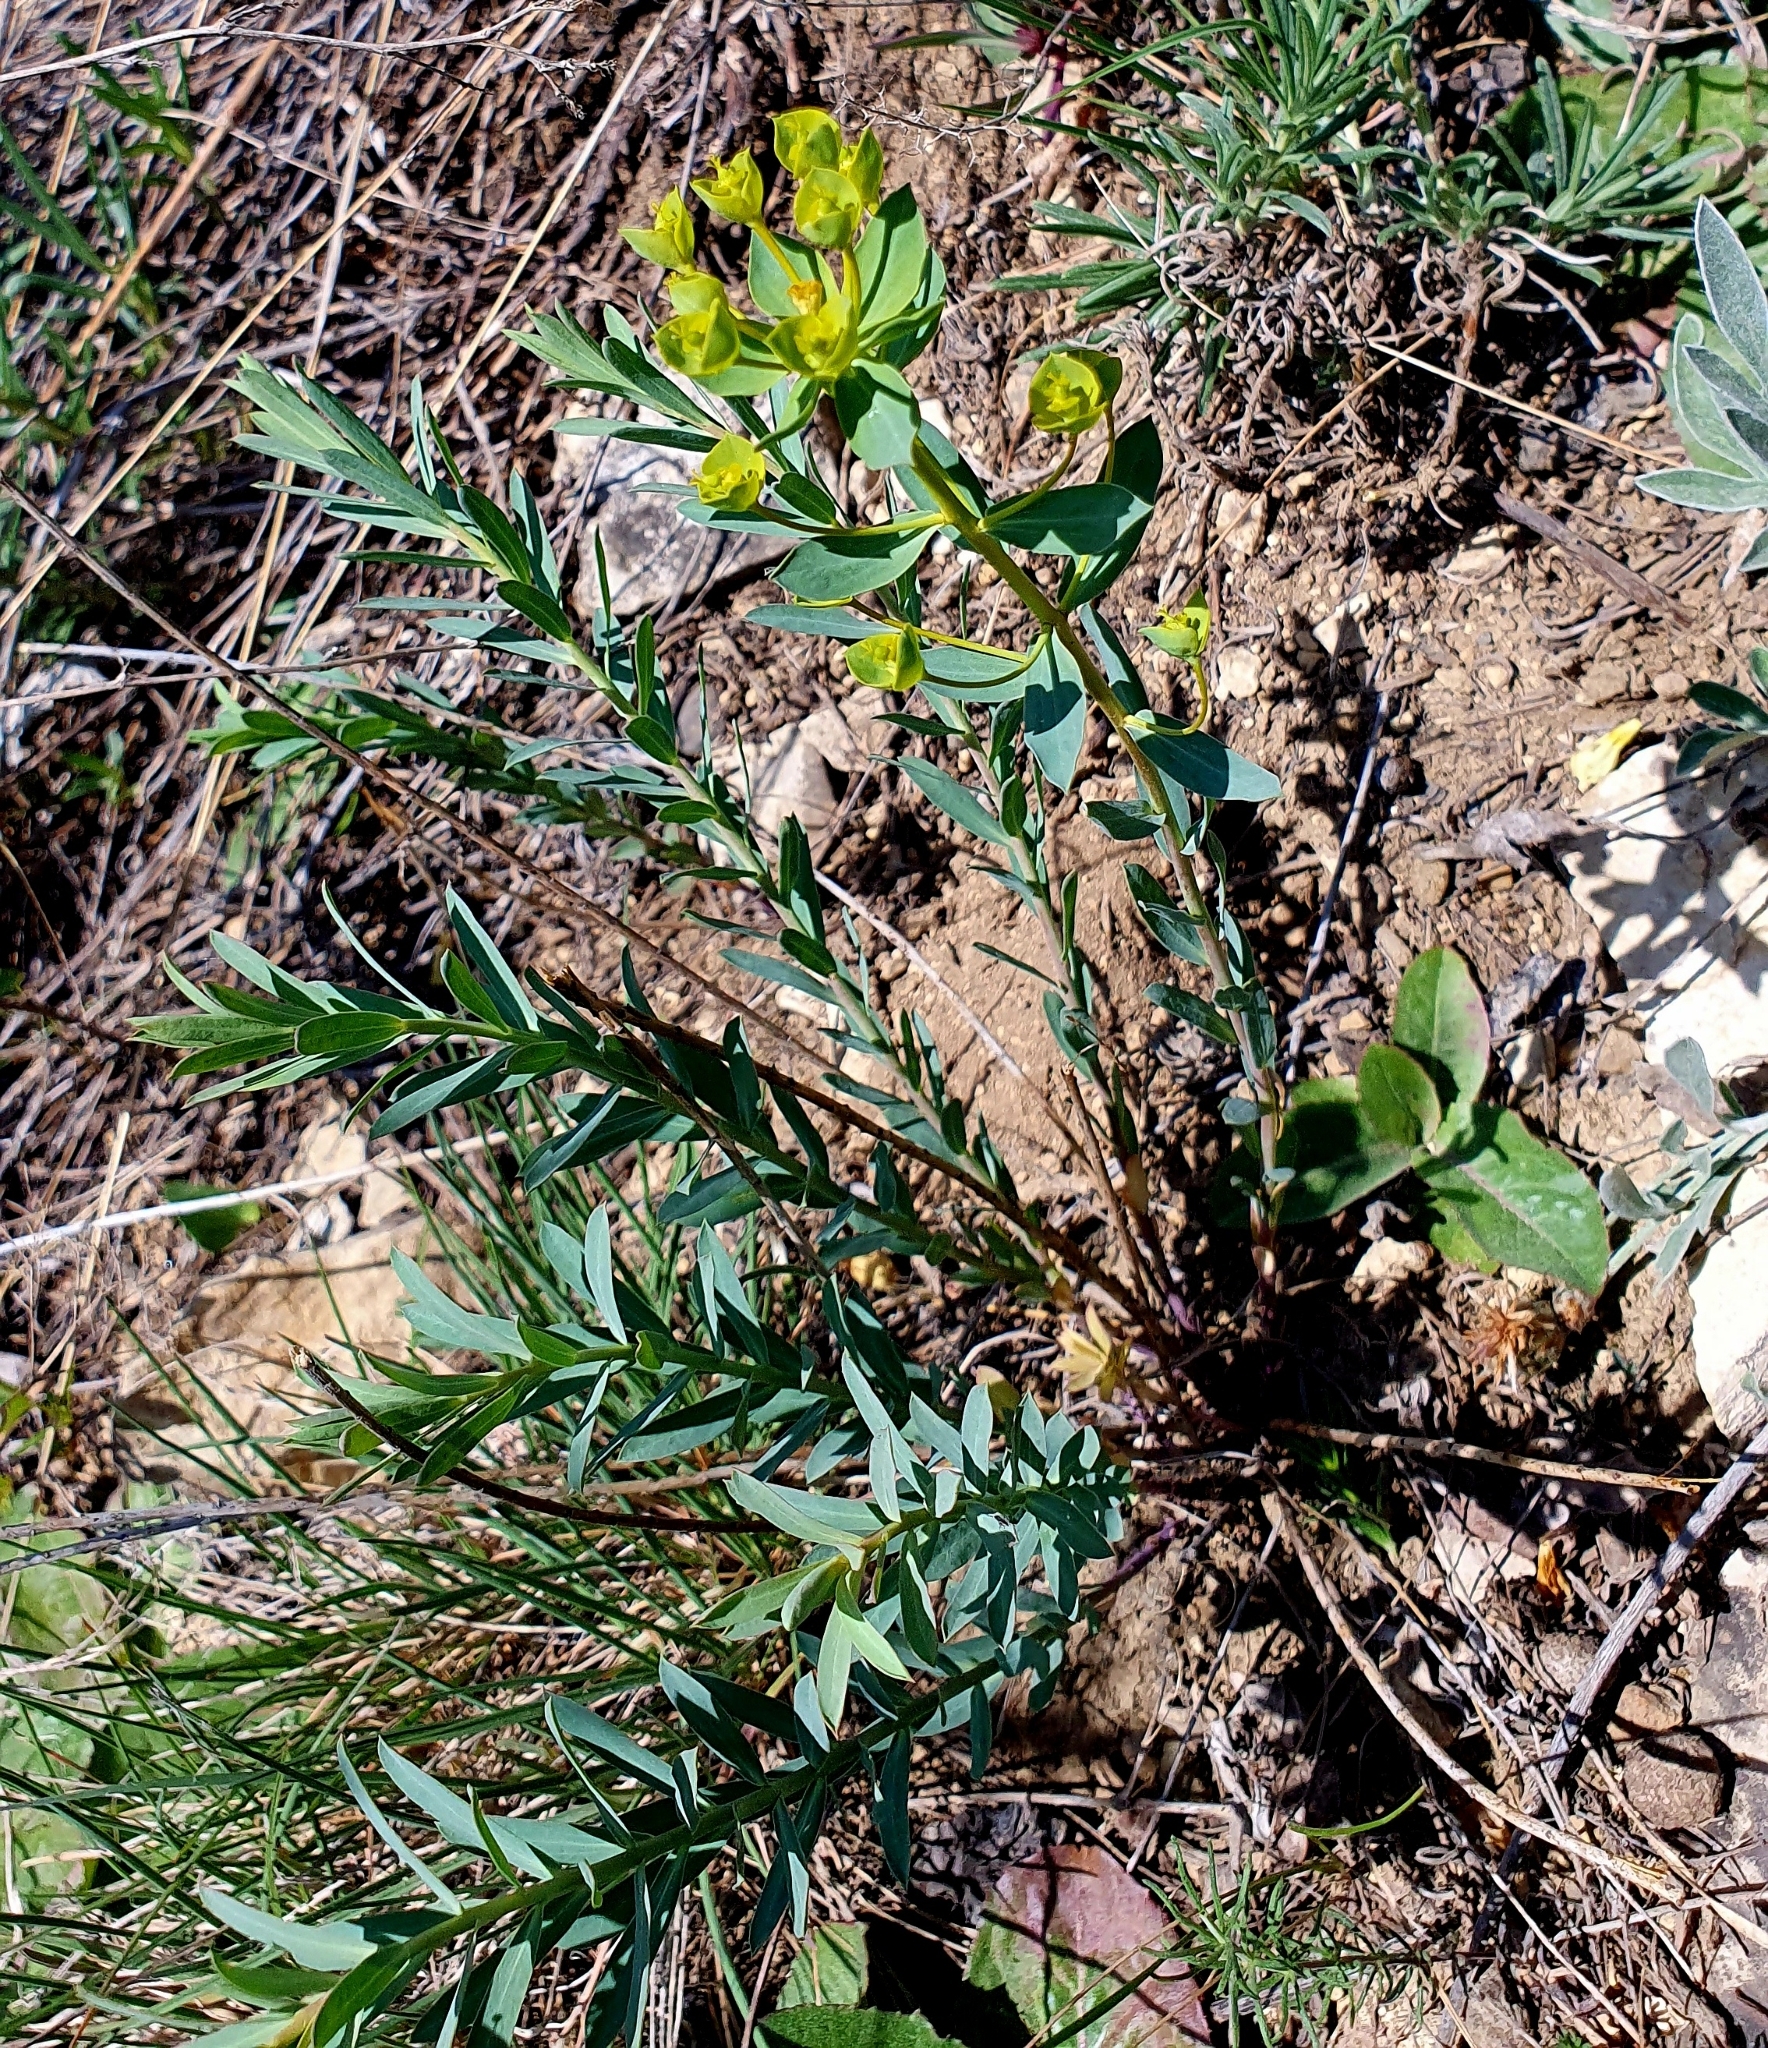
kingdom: Plantae
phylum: Tracheophyta
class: Magnoliopsida
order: Malpighiales
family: Euphorbiaceae
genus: Euphorbia
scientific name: Euphorbia seguieriana
